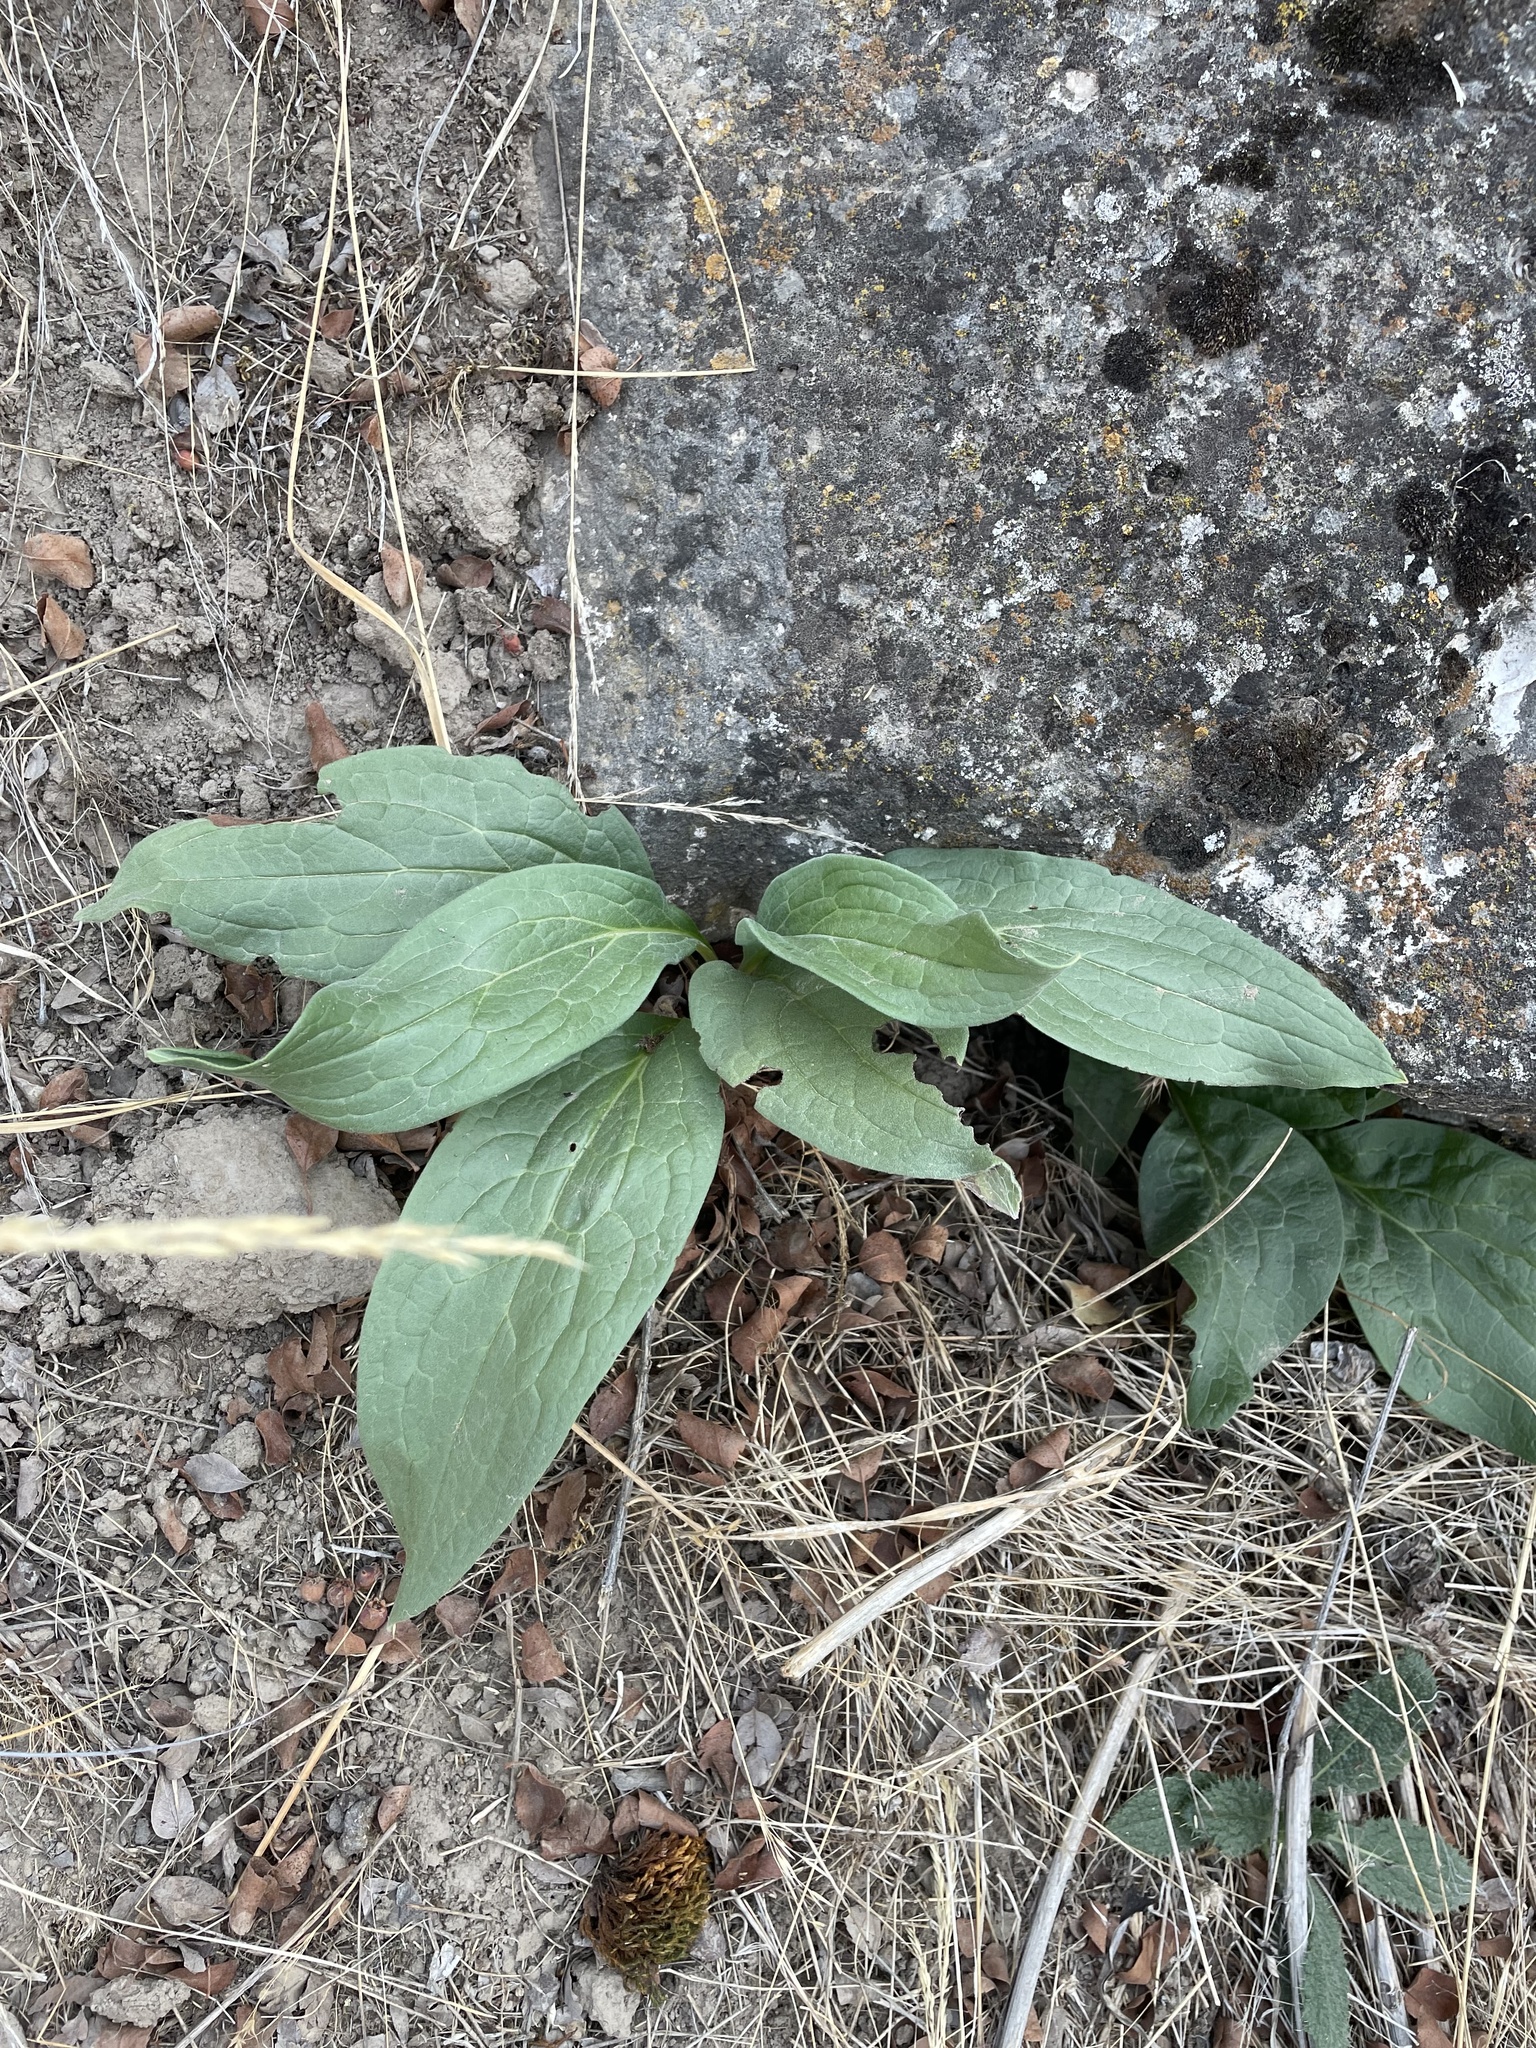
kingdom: Plantae
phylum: Tracheophyta
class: Magnoliopsida
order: Boraginales
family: Boraginaceae
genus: Cynoglossum
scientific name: Cynoglossum officinale
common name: Hound's-tongue
